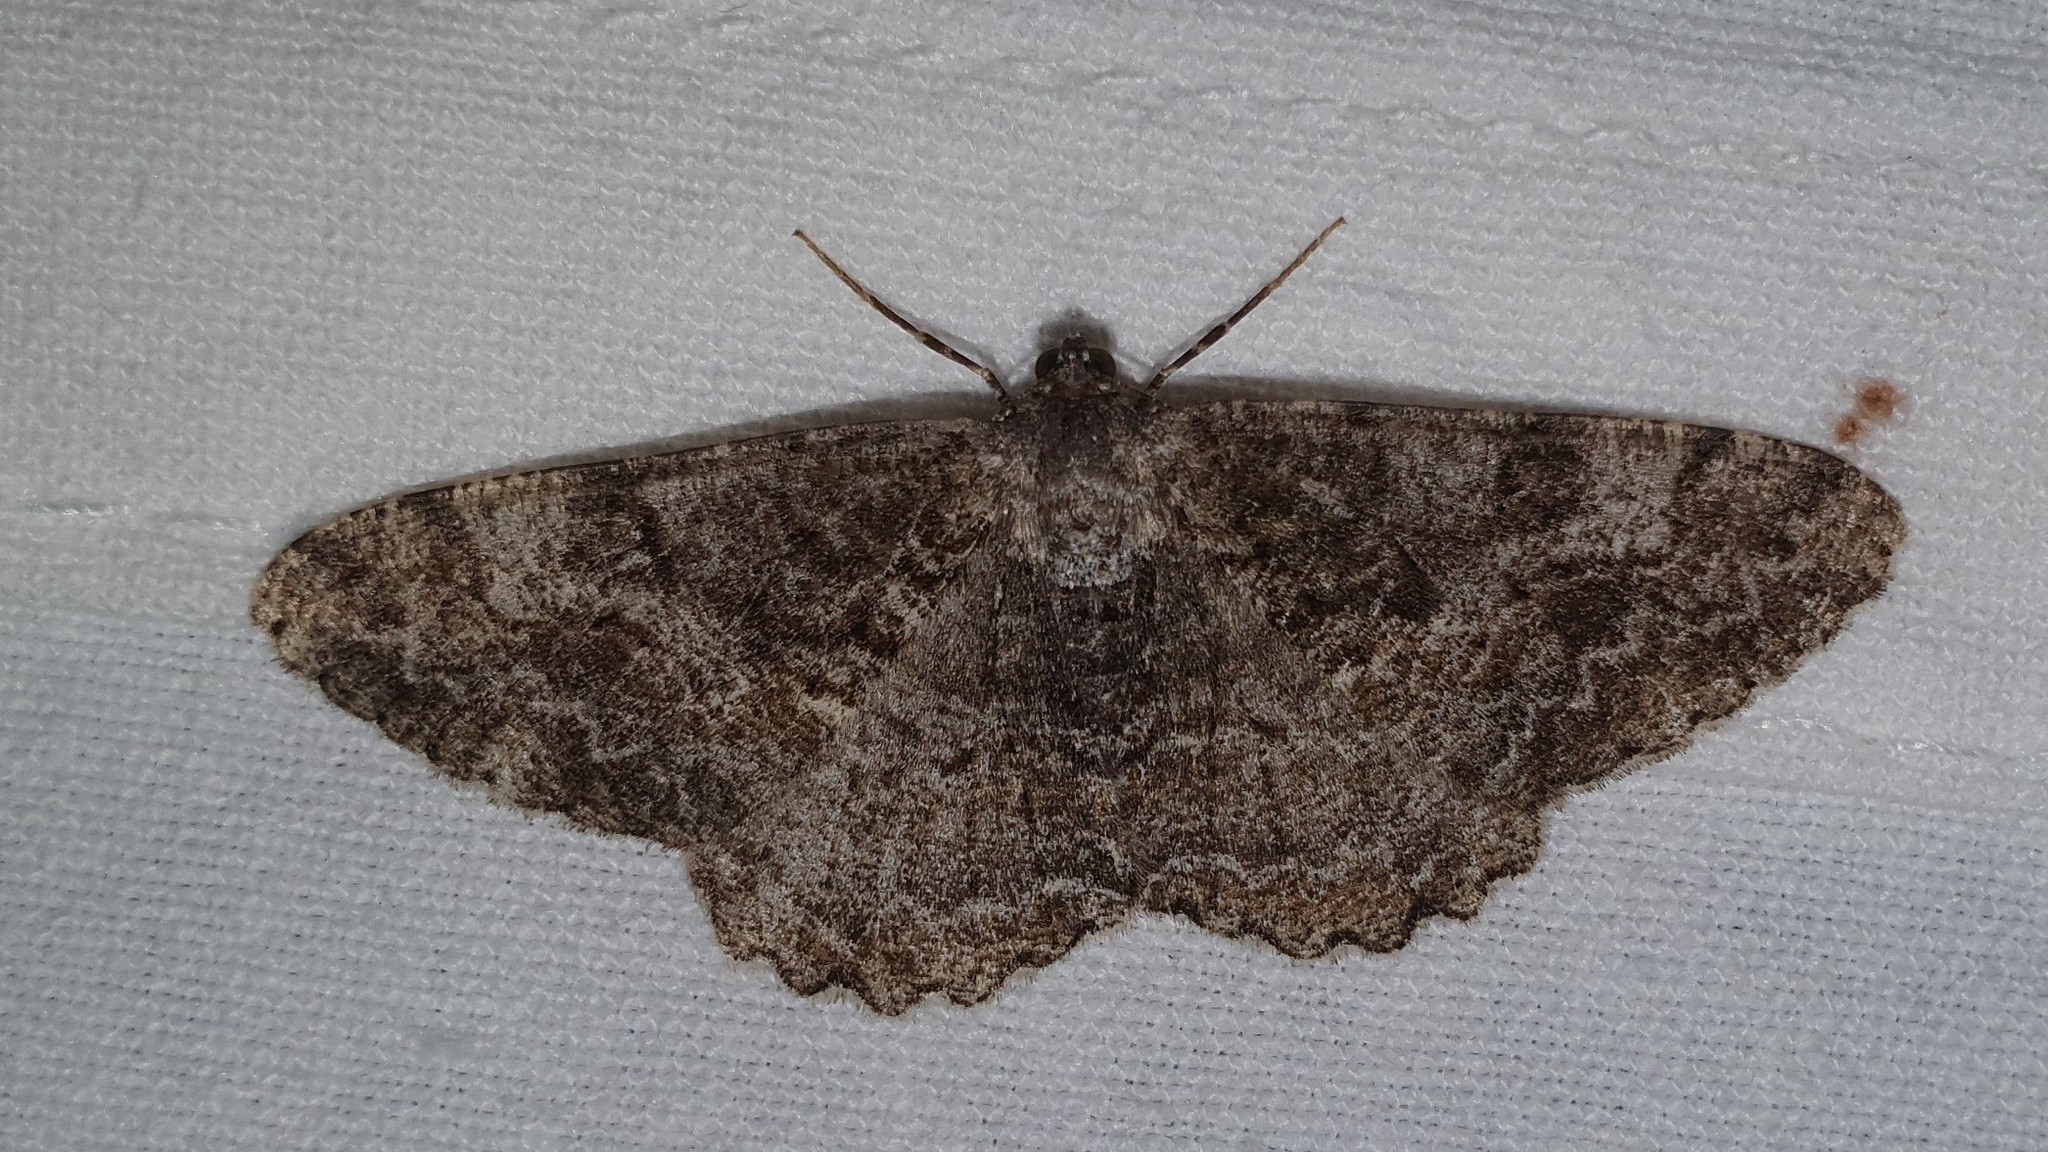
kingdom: Animalia
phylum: Arthropoda
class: Insecta
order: Lepidoptera
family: Geometridae
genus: Alcis
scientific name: Alcis repandata
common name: Mottled beauty
